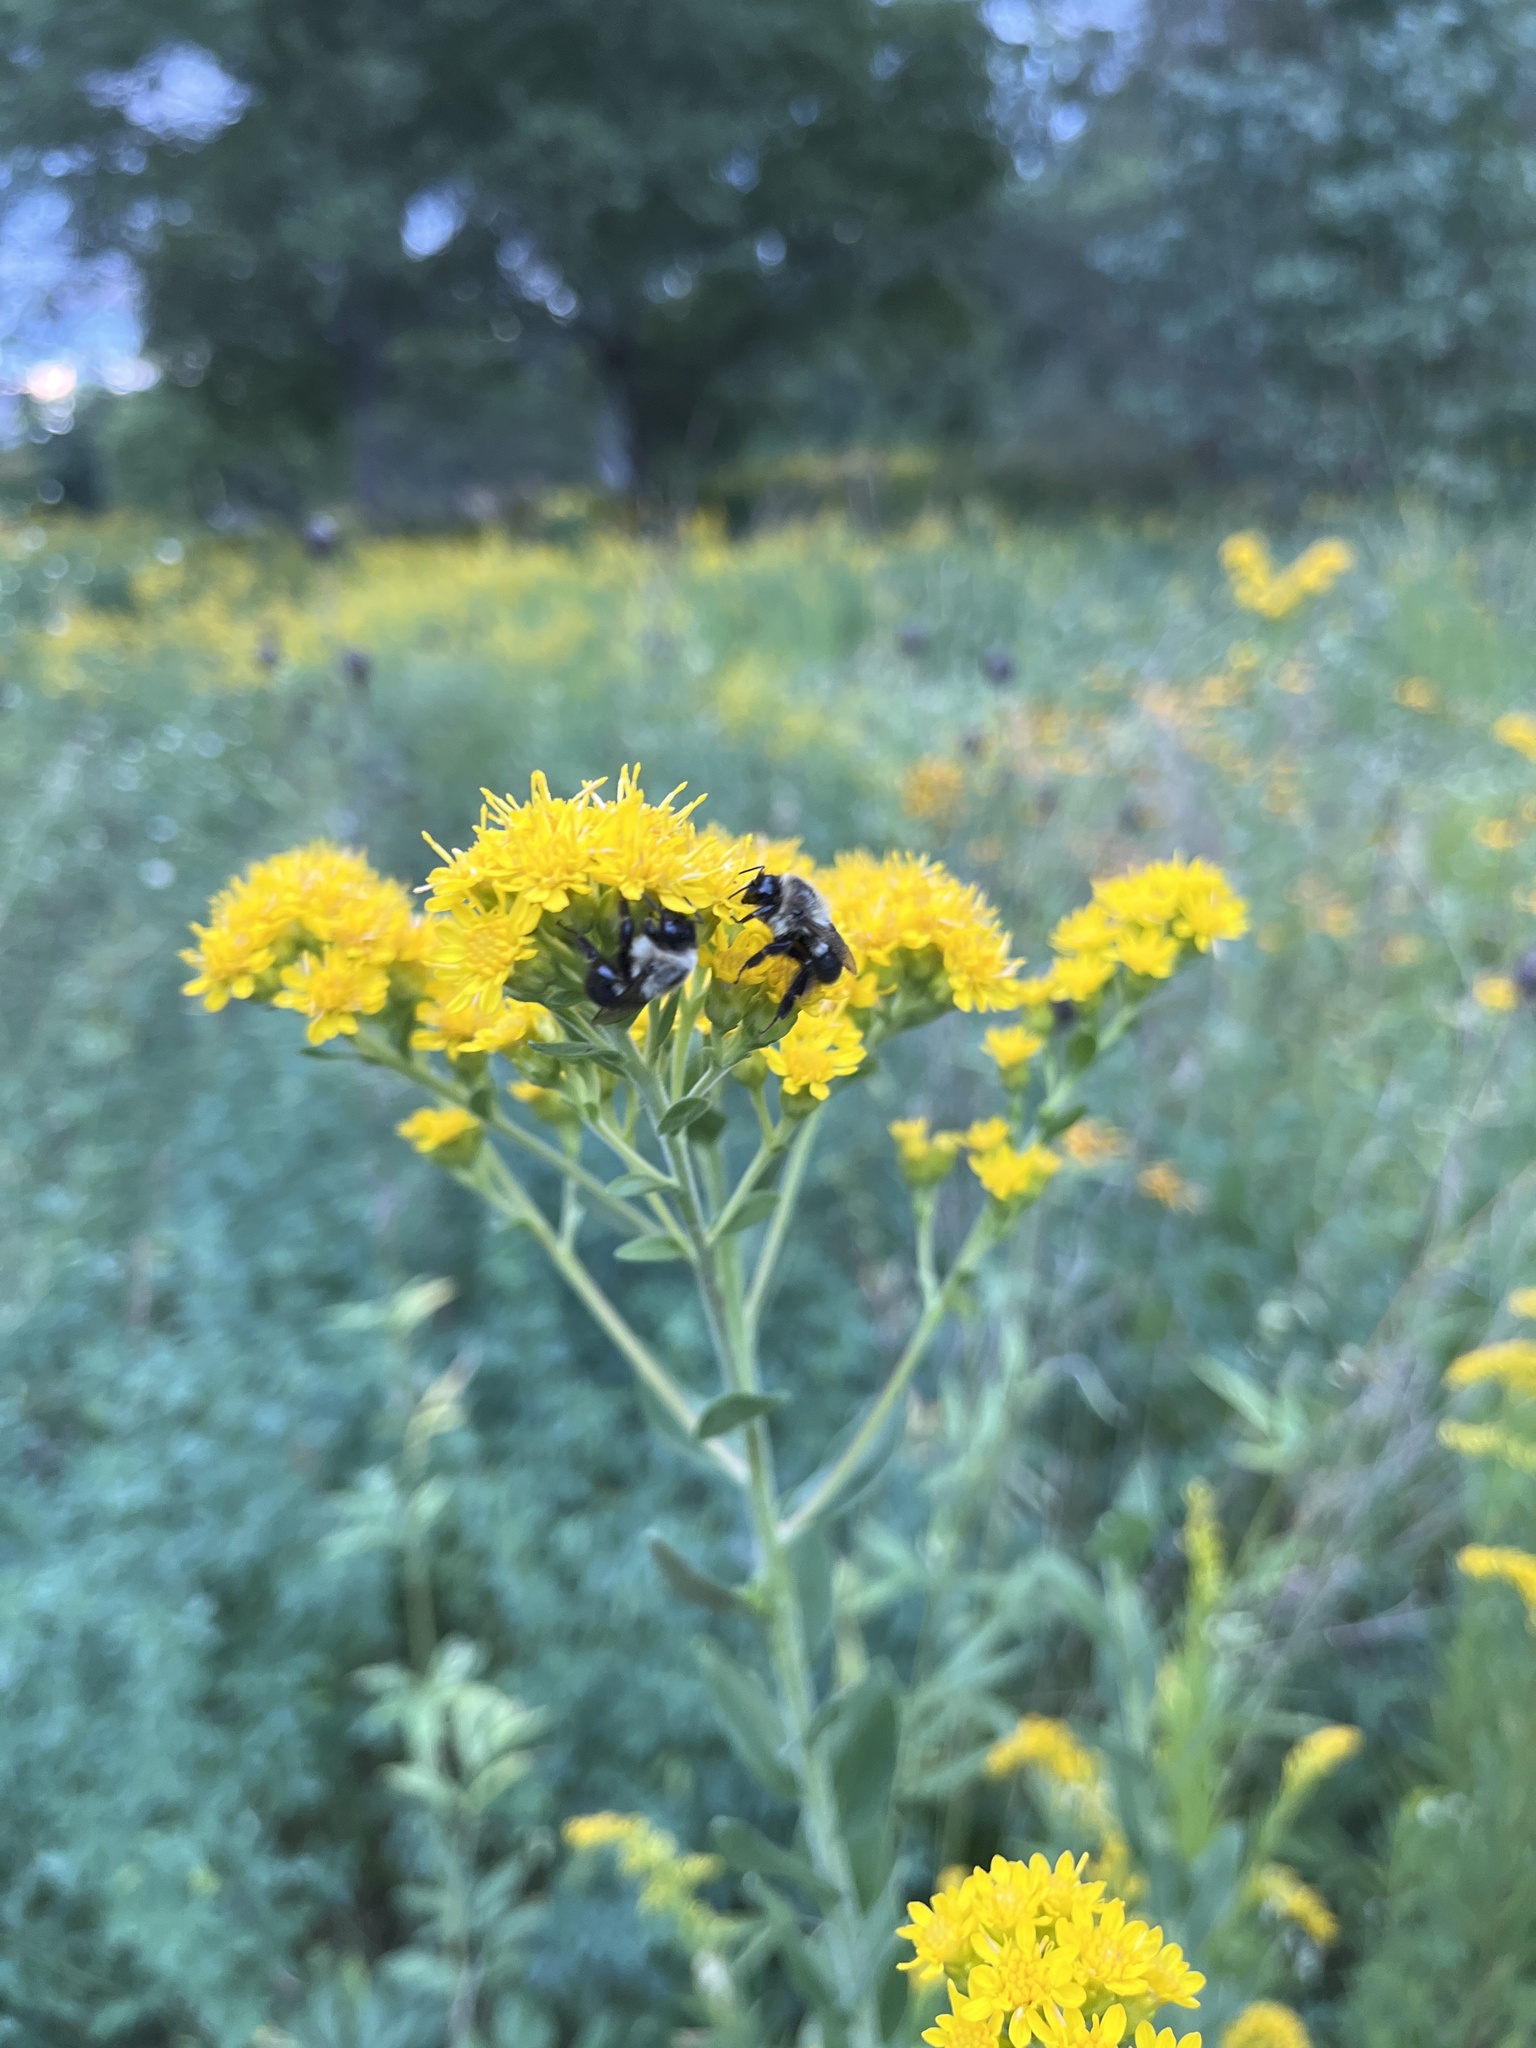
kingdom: Animalia
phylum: Arthropoda
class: Insecta
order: Hymenoptera
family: Apidae
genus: Bombus
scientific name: Bombus impatiens
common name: Common eastern bumble bee
